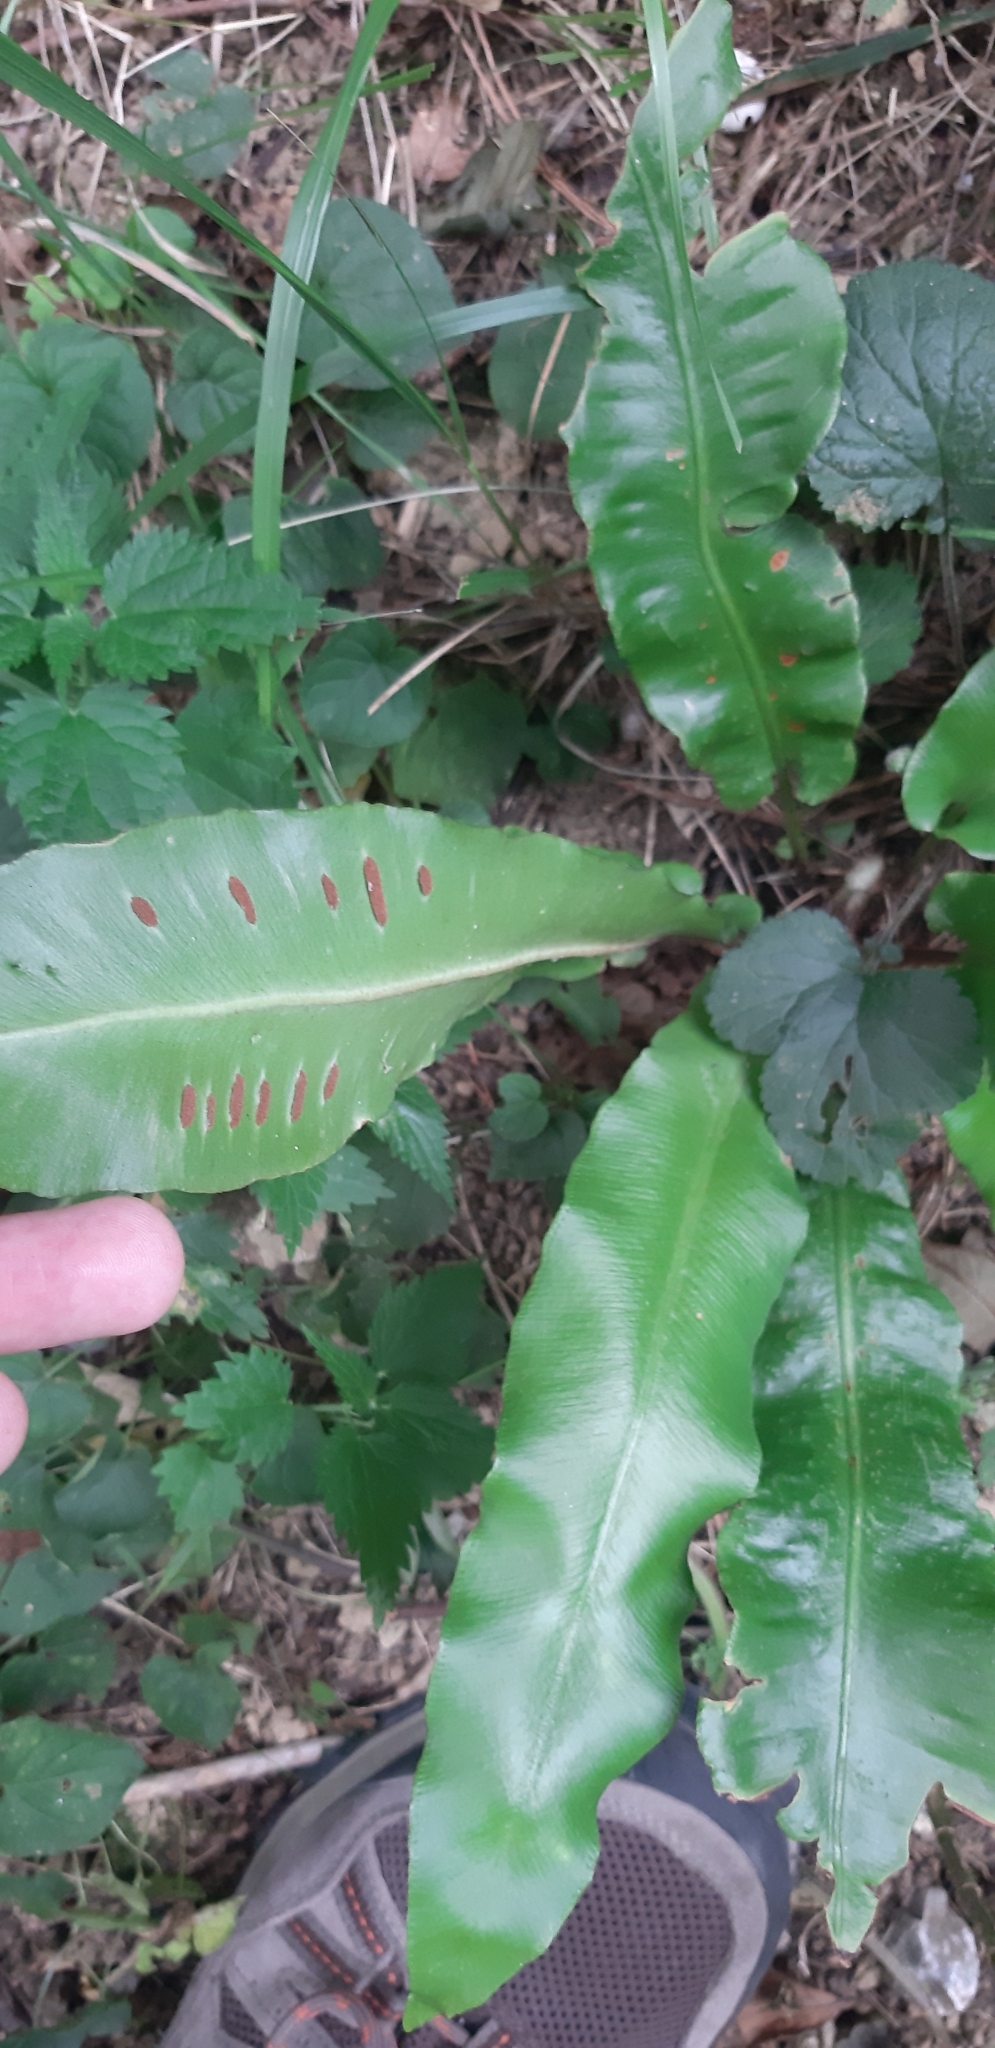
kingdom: Plantae
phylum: Tracheophyta
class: Polypodiopsida
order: Polypodiales
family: Aspleniaceae
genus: Asplenium
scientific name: Asplenium scolopendrium
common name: Hart's-tongue fern
